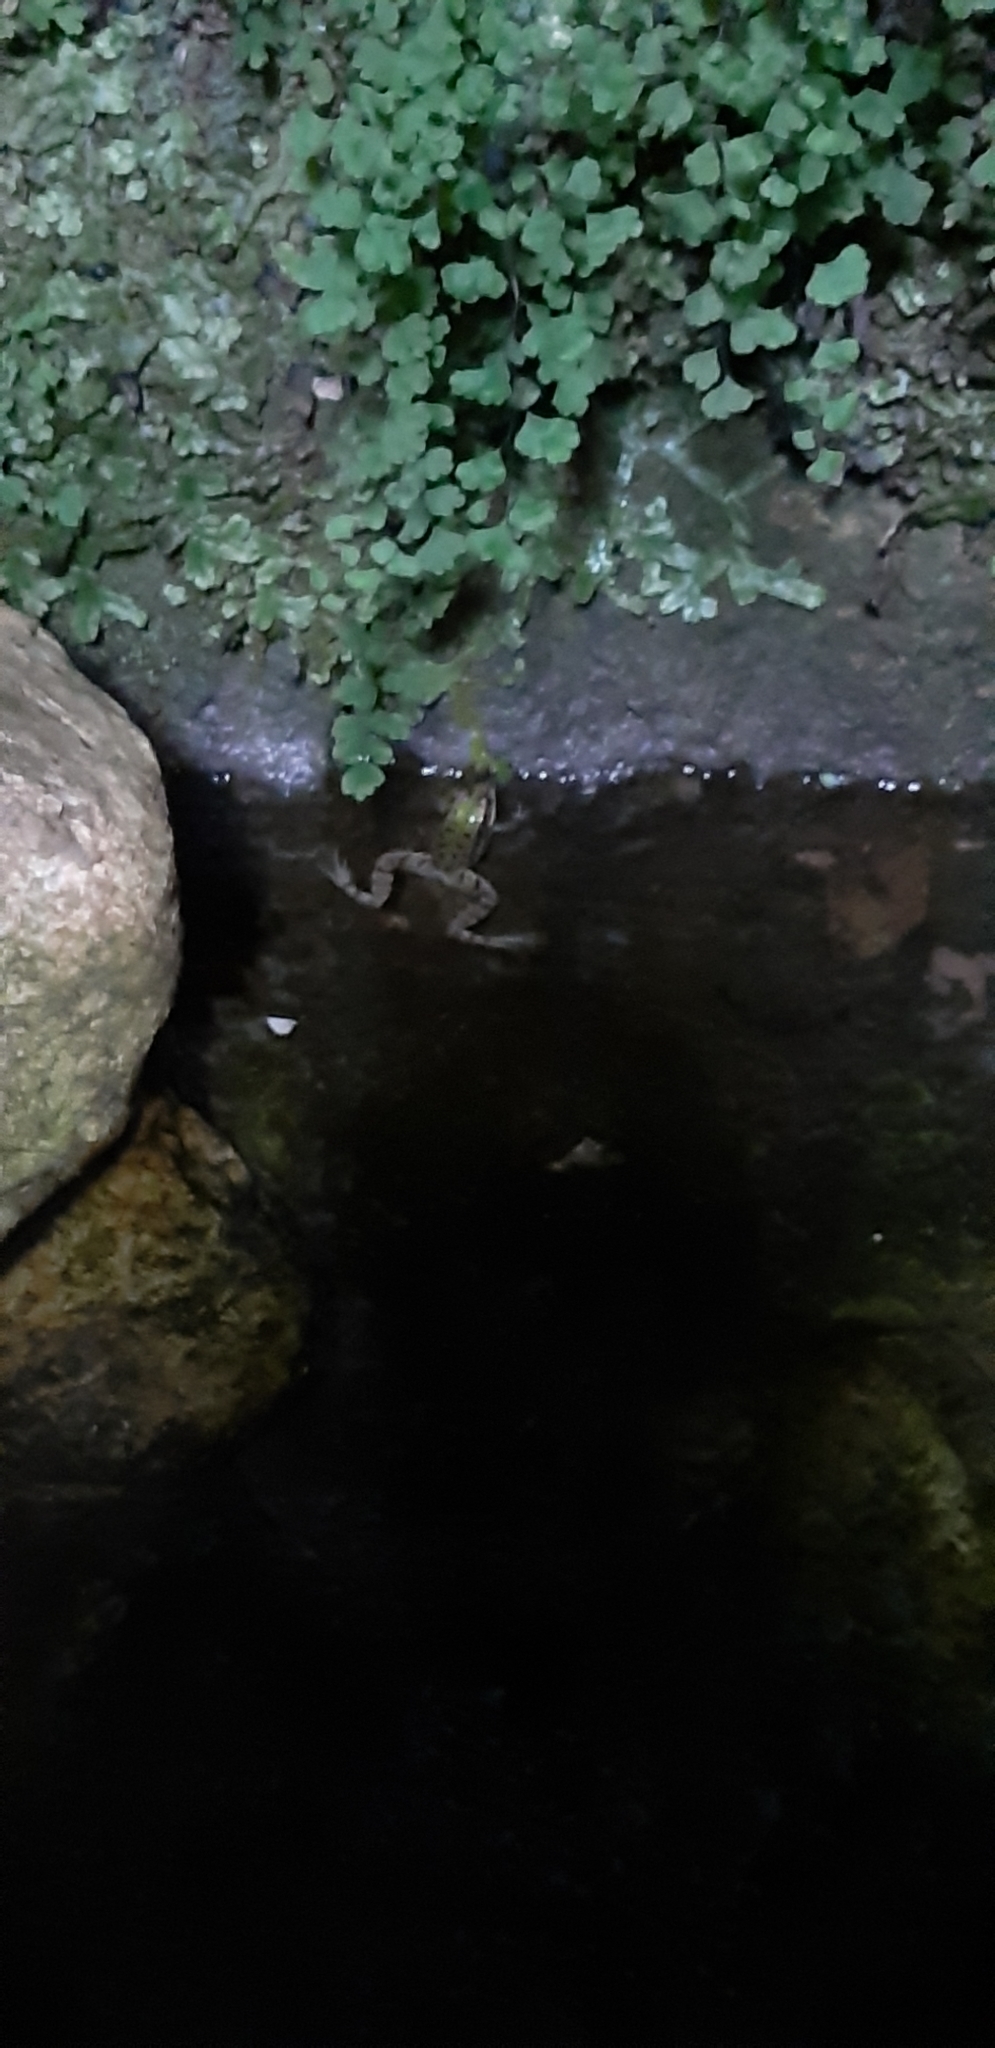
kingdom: Animalia
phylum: Chordata
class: Amphibia
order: Anura
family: Ranidae
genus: Pelophylax
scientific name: Pelophylax
